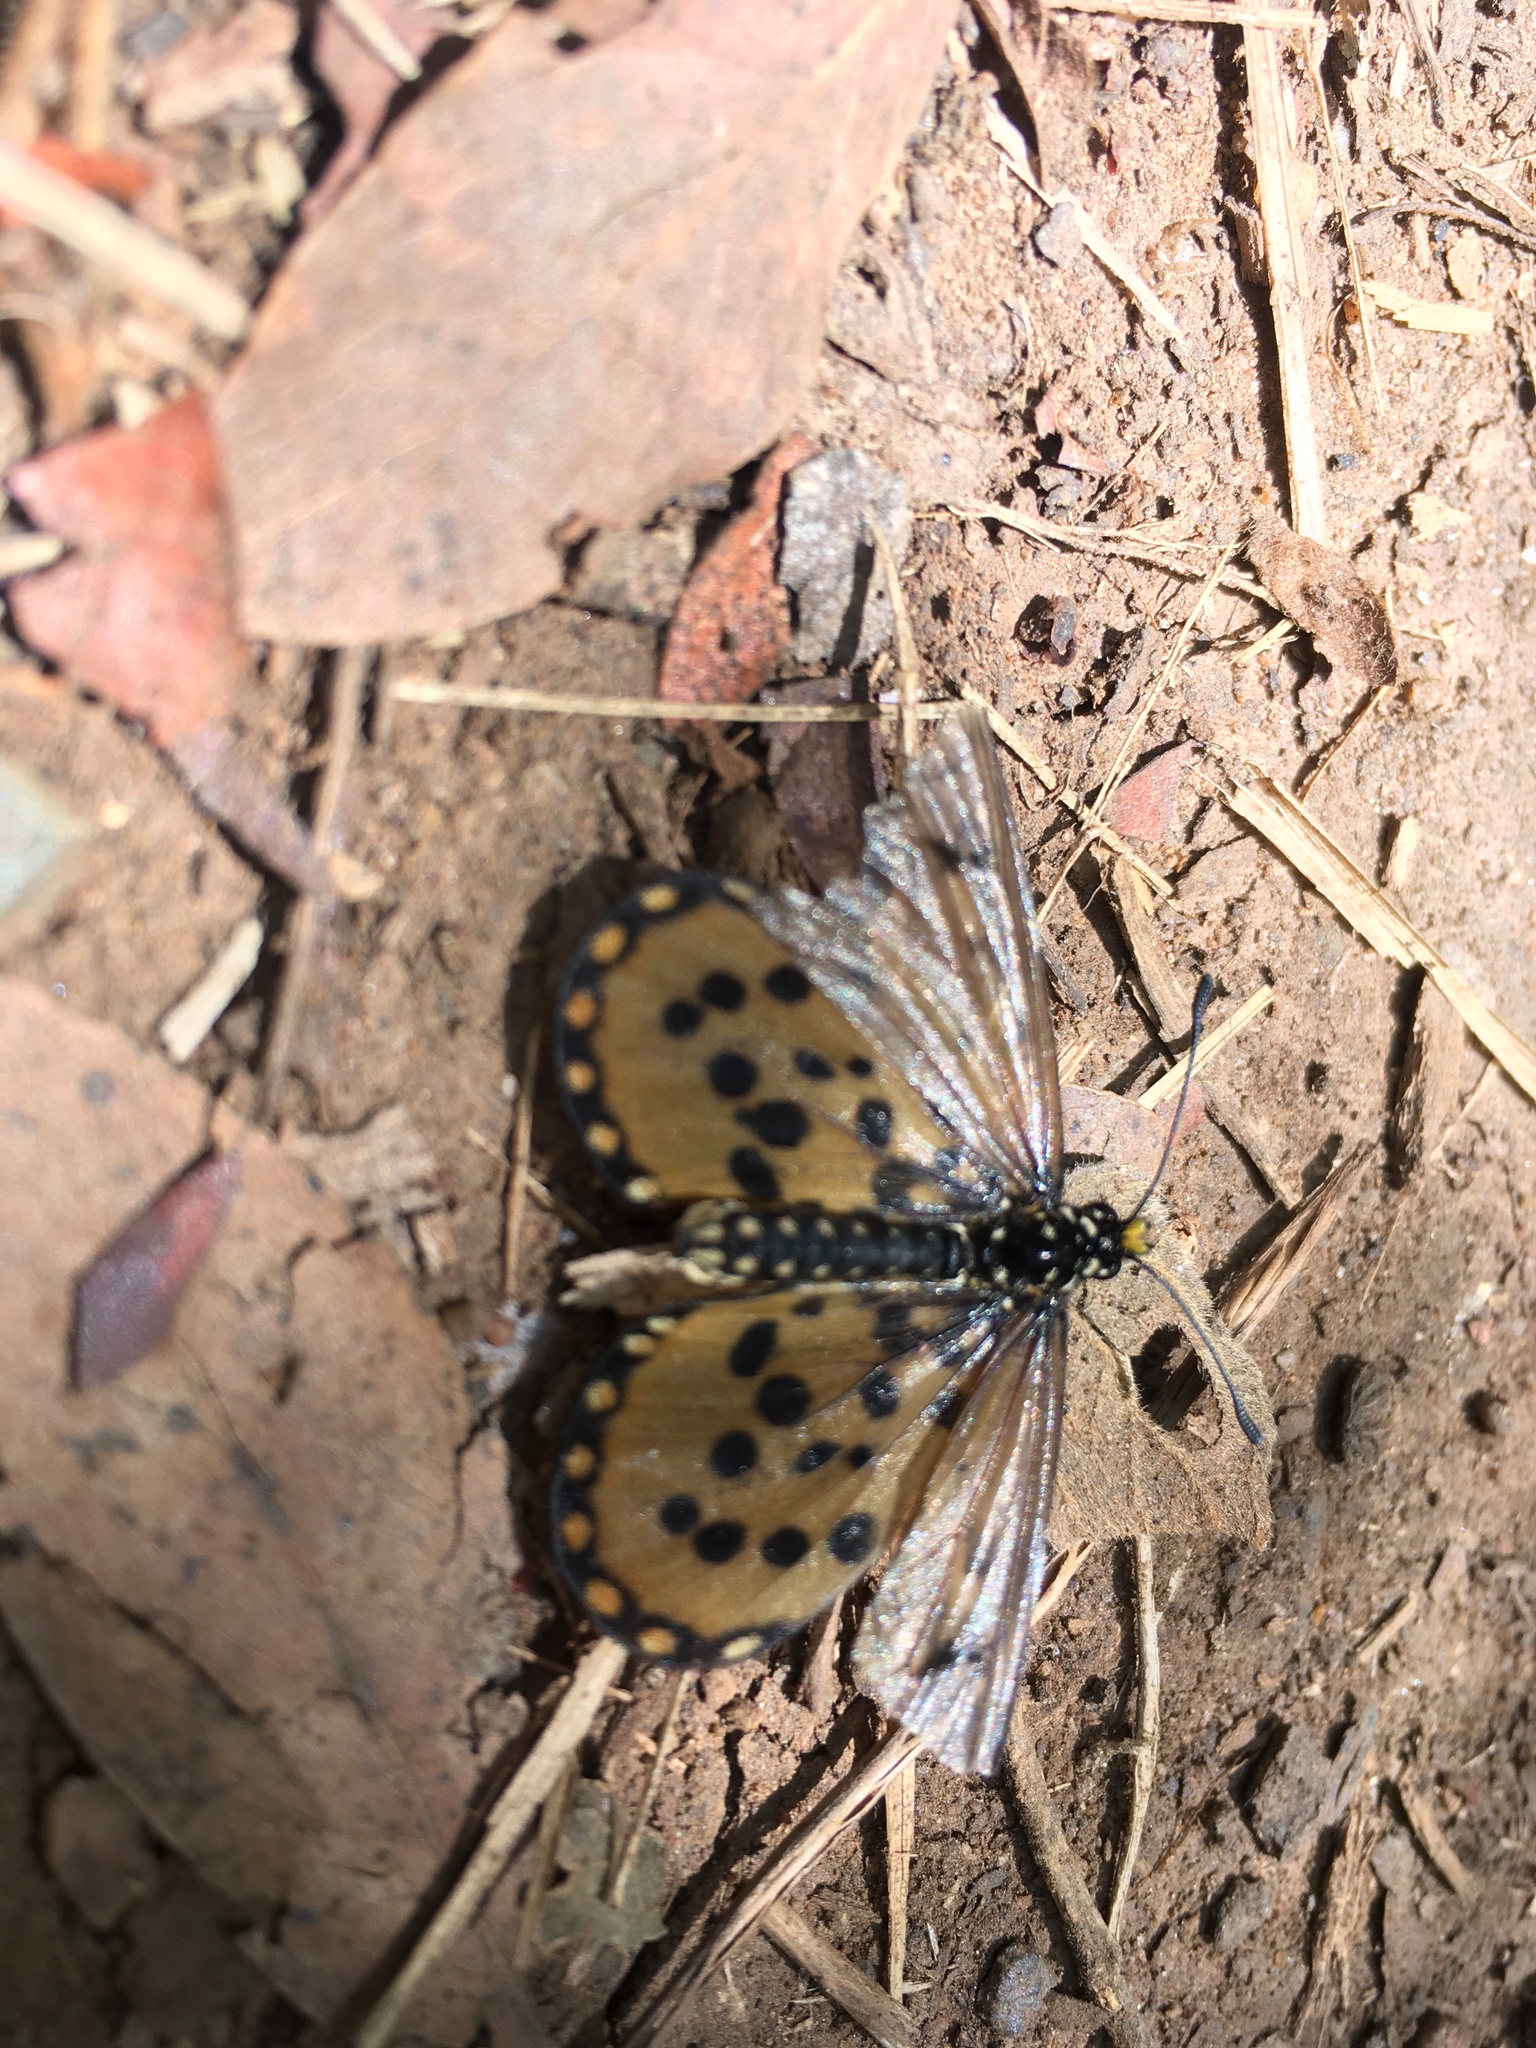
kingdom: Animalia
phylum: Arthropoda
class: Insecta
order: Lepidoptera
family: Nymphalidae
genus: Acraea
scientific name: Acraea horta
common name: Garden acraea
